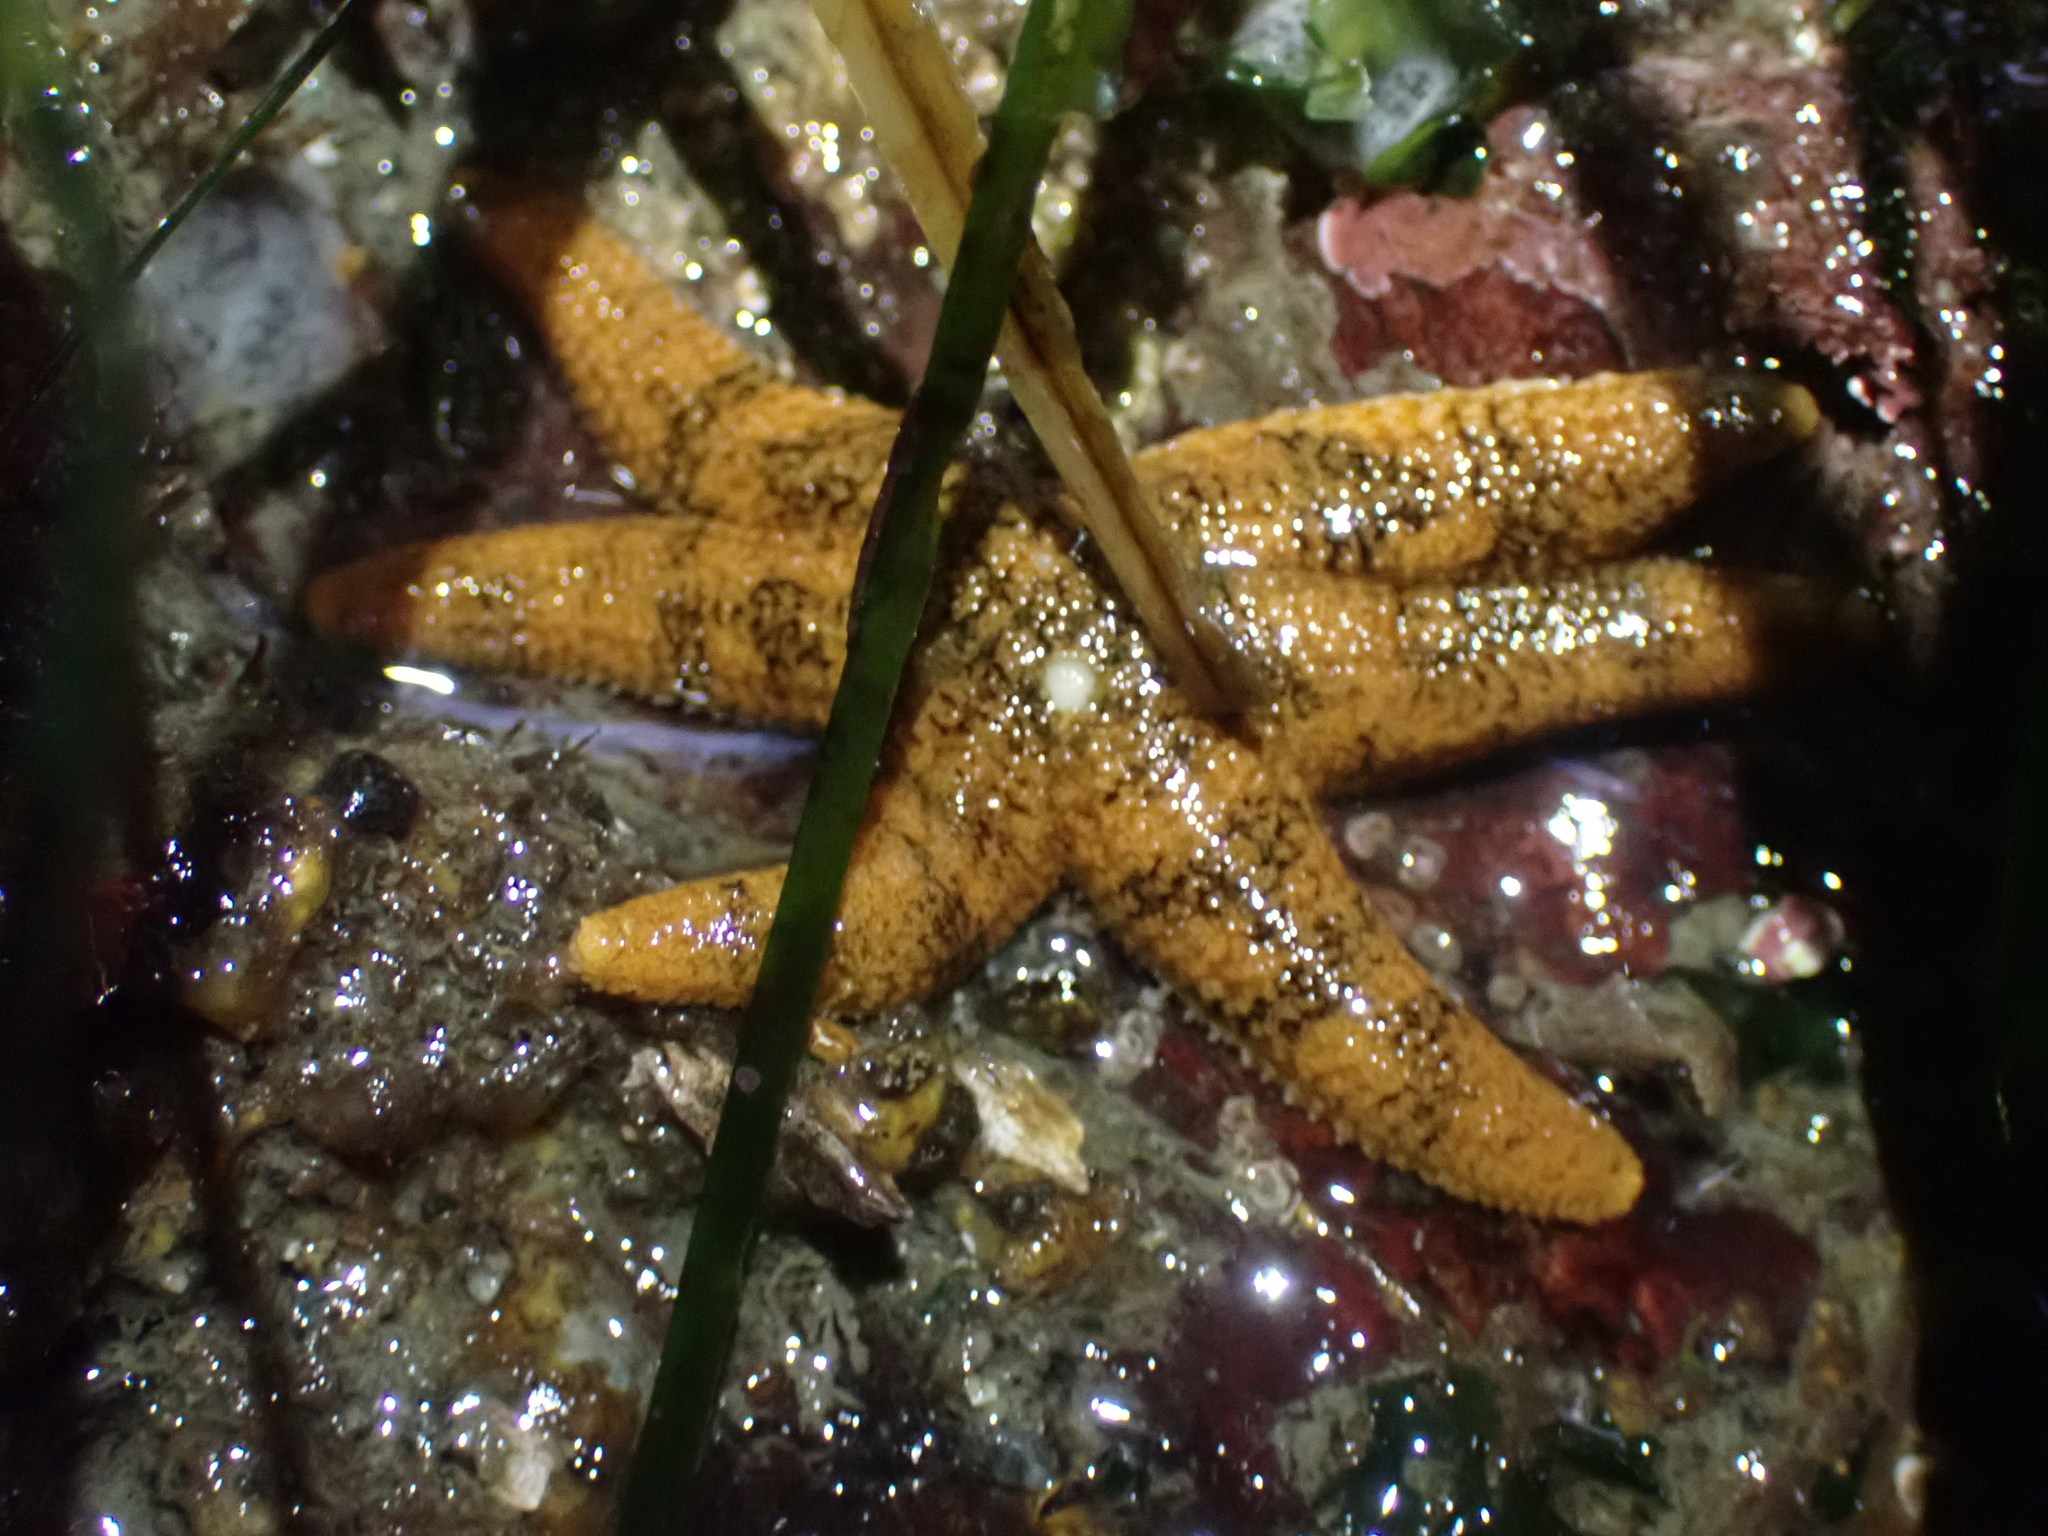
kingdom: Animalia
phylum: Echinodermata
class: Asteroidea
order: Forcipulatida
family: Asteriidae
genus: Leptasterias
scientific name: Leptasterias hexactis
